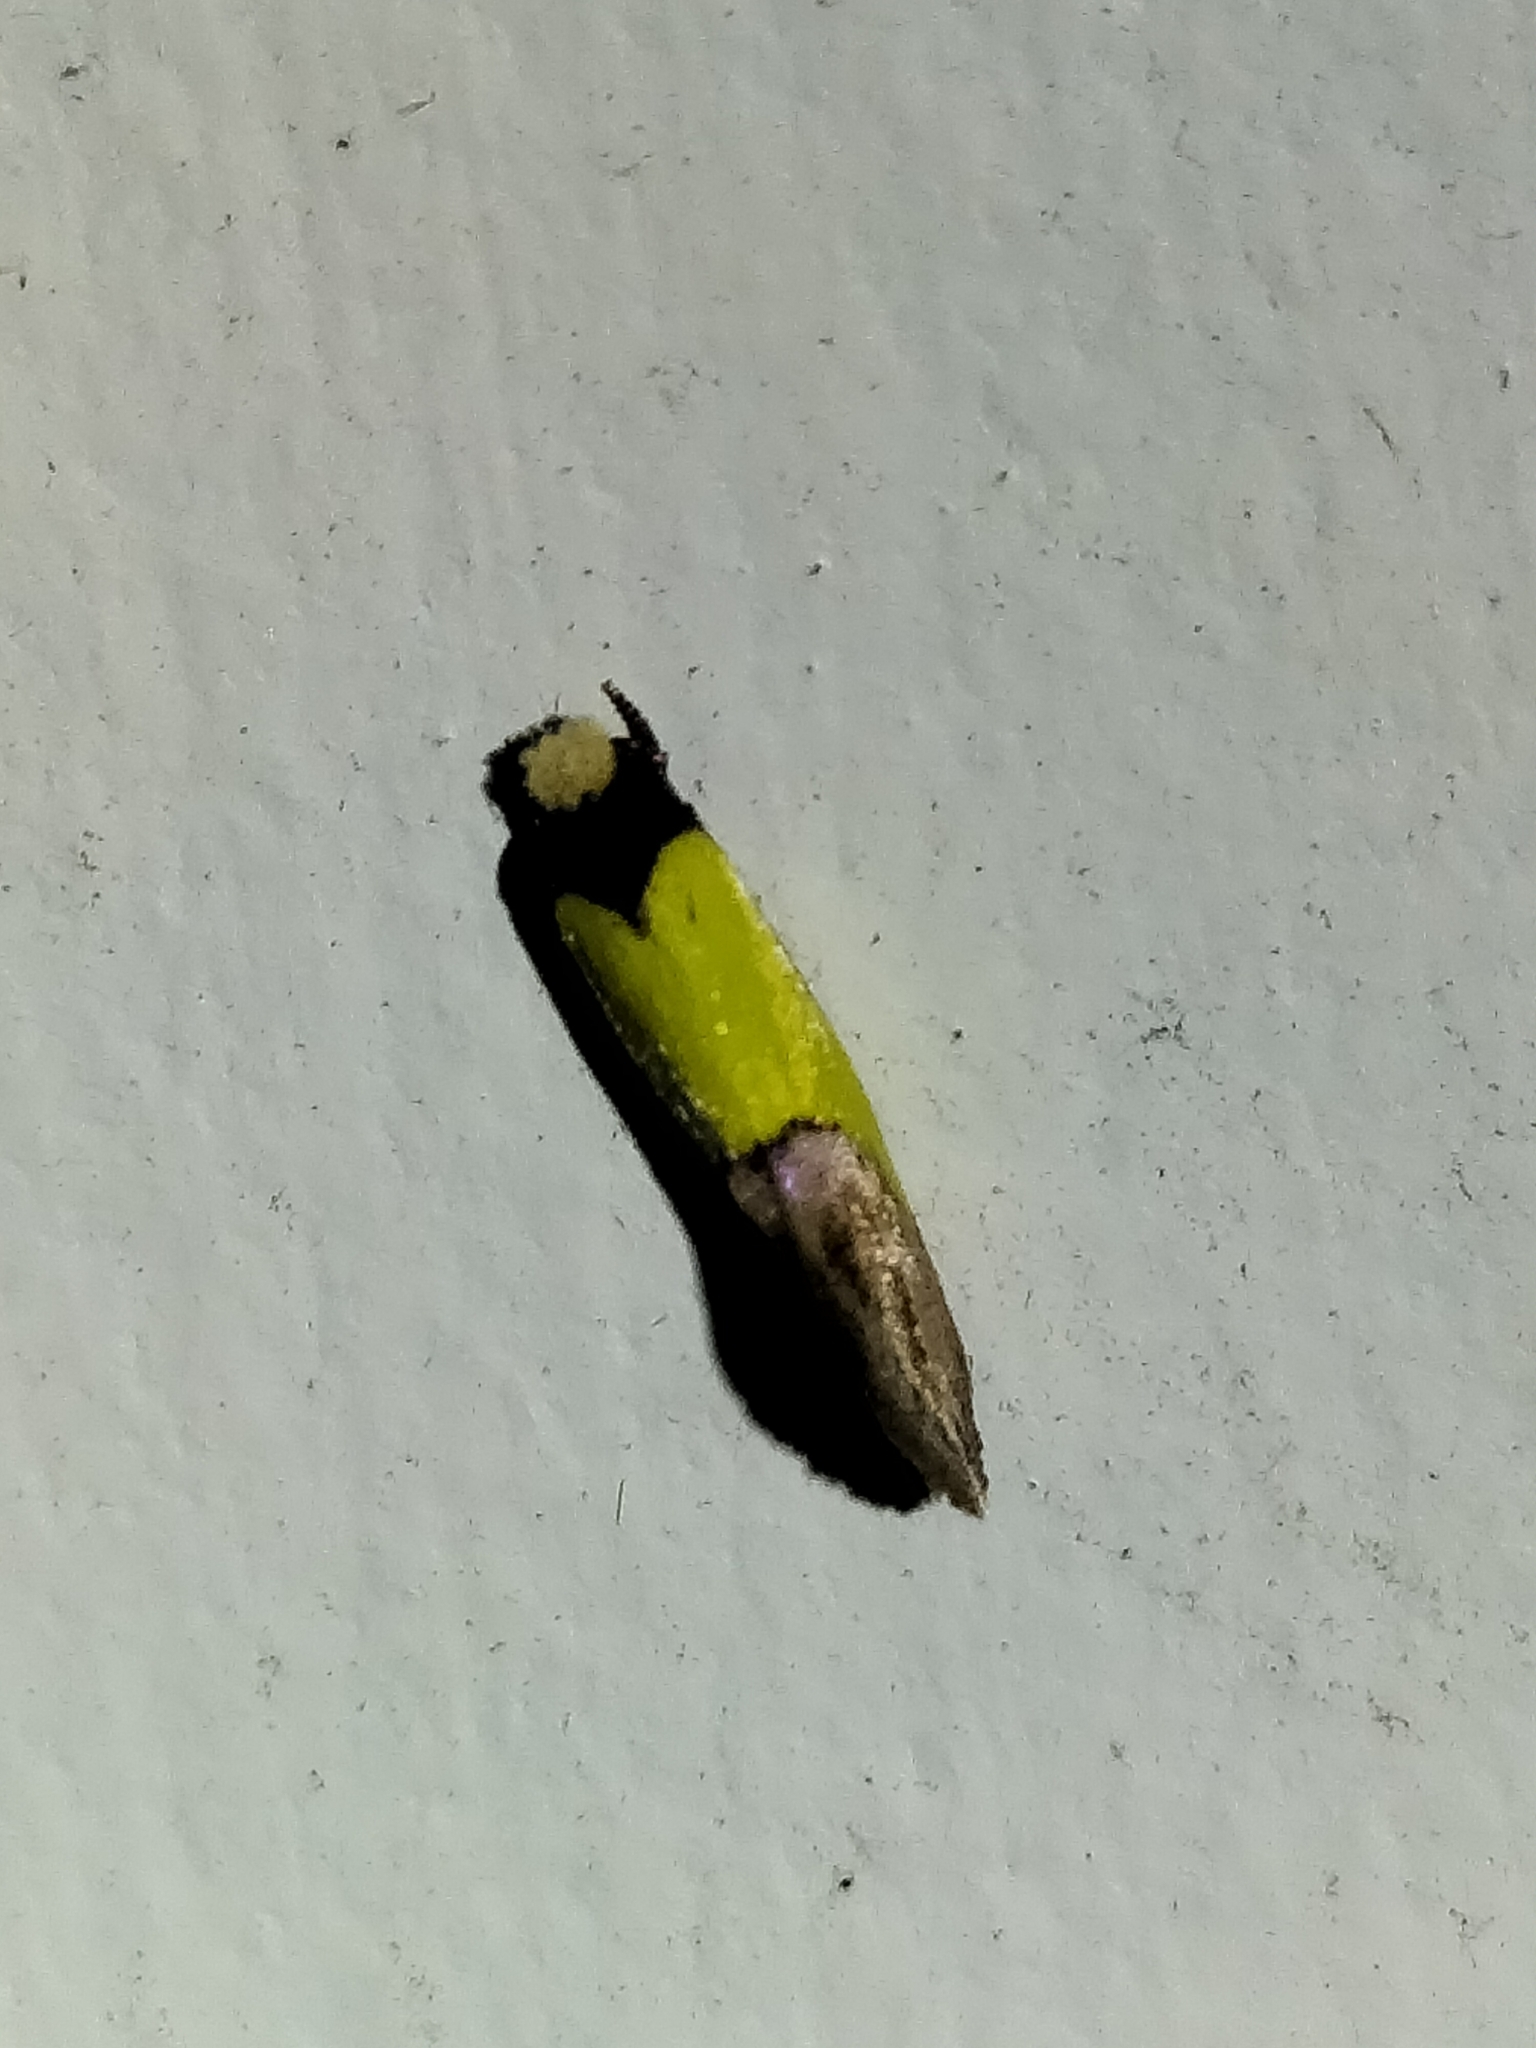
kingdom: Animalia
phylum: Arthropoda
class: Insecta
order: Lepidoptera
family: Tineidae
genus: Edosa
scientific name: Edosa xystidophora
